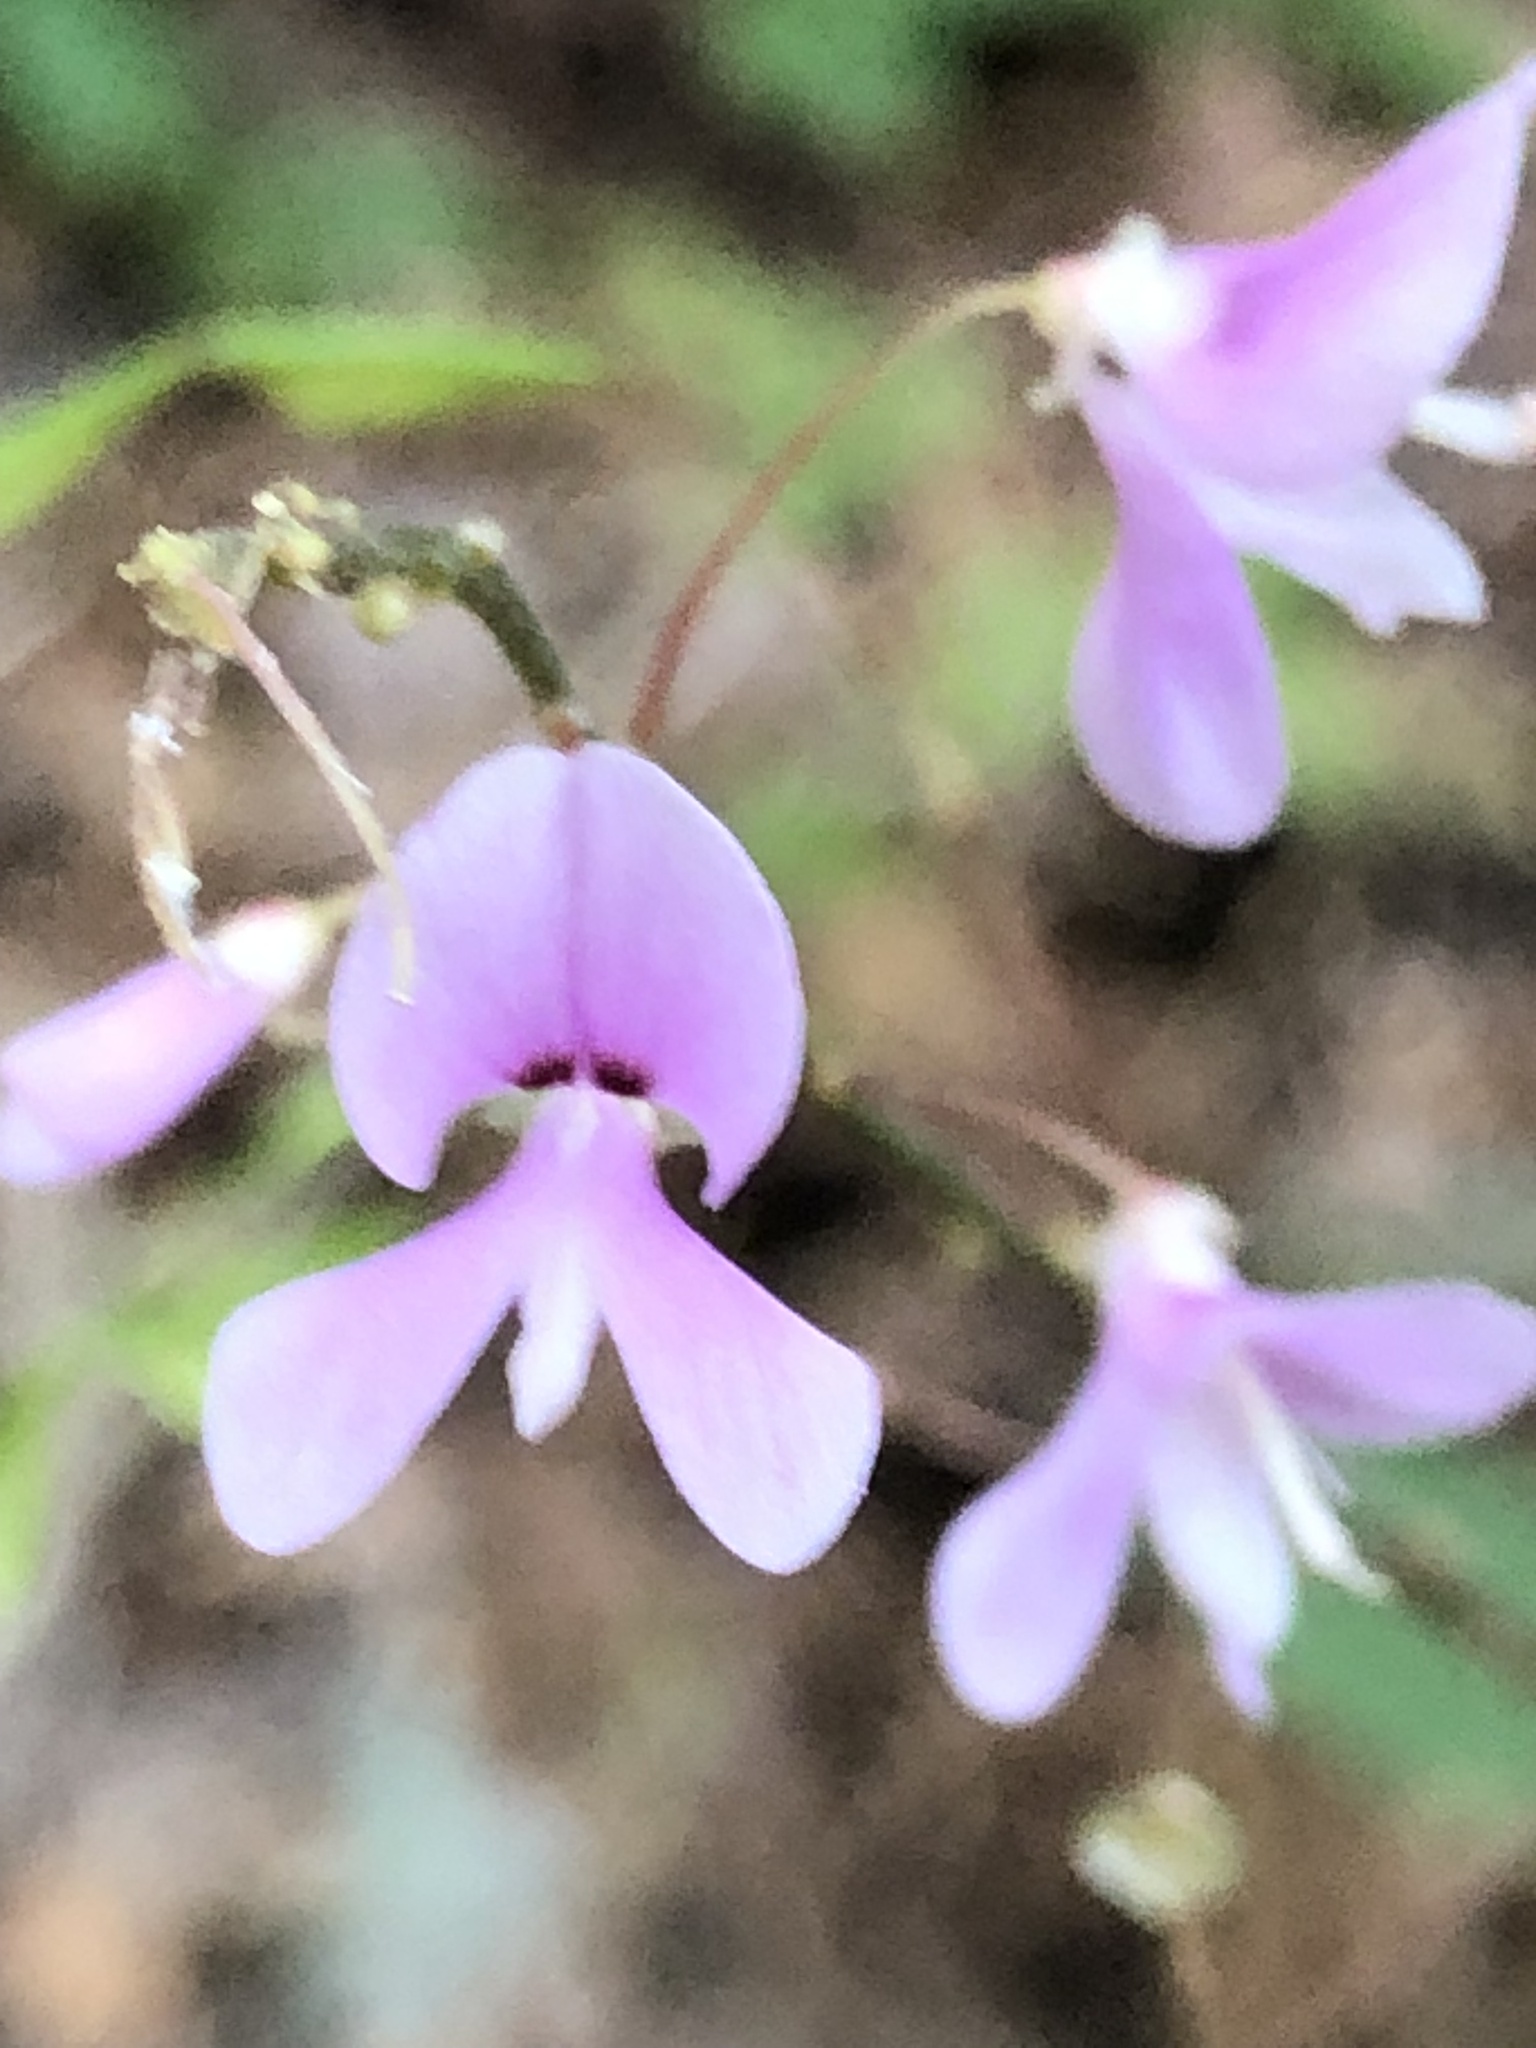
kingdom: Plantae
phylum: Tracheophyta
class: Magnoliopsida
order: Fabales
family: Fabaceae
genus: Hylodesmum
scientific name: Hylodesmum nudiflorum
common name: Bare-stemmed tick-trefoil
